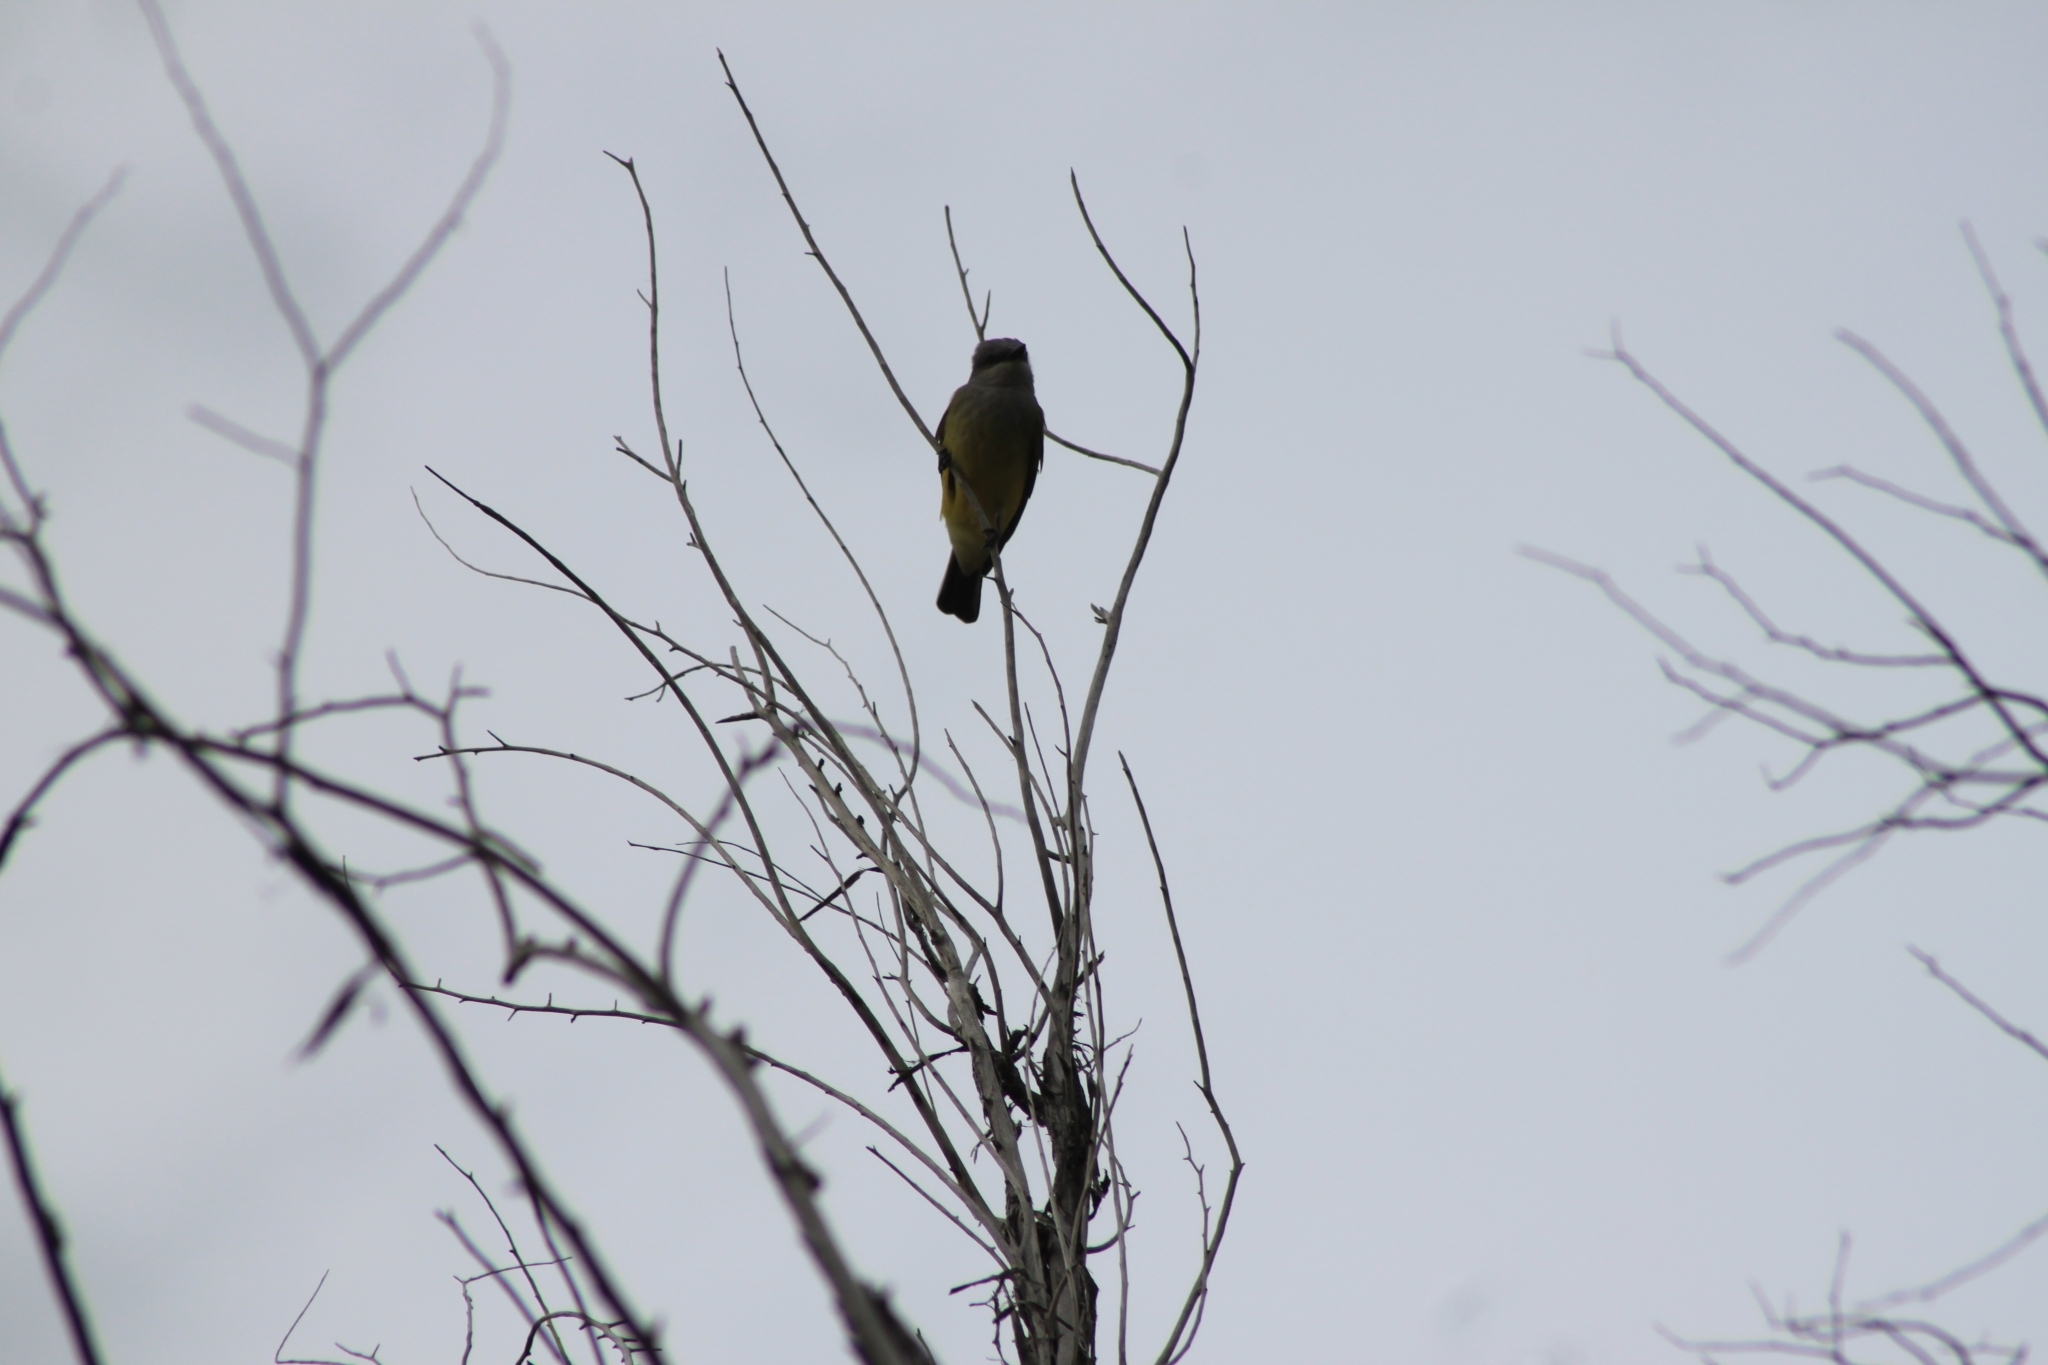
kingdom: Animalia
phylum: Chordata
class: Aves
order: Passeriformes
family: Tyrannidae
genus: Tyrannus
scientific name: Tyrannus verticalis
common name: Western kingbird
